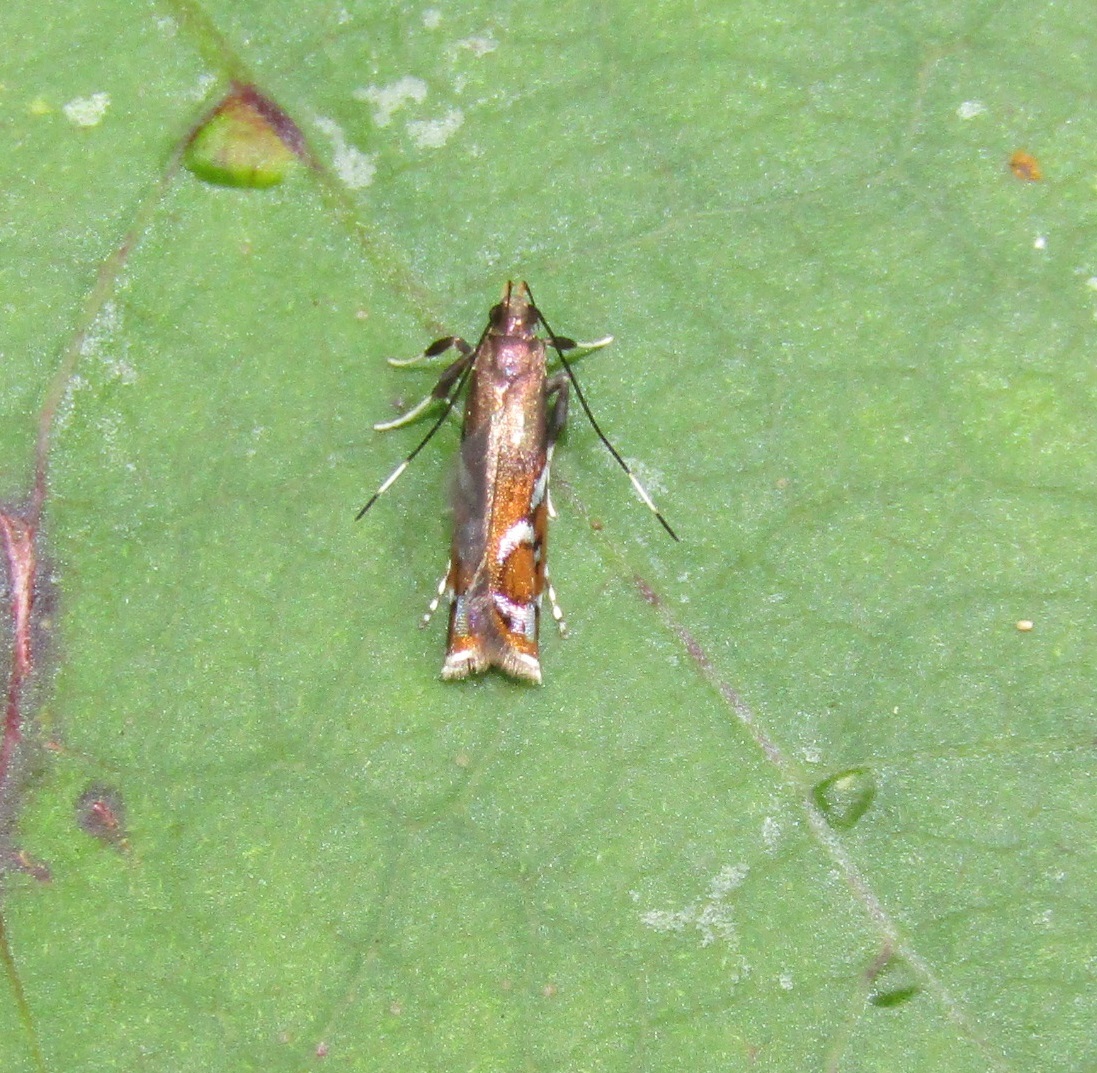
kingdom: Animalia
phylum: Arthropoda
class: Insecta
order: Lepidoptera
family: Depressariidae
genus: Compsistis
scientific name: Compsistis bifaciella
